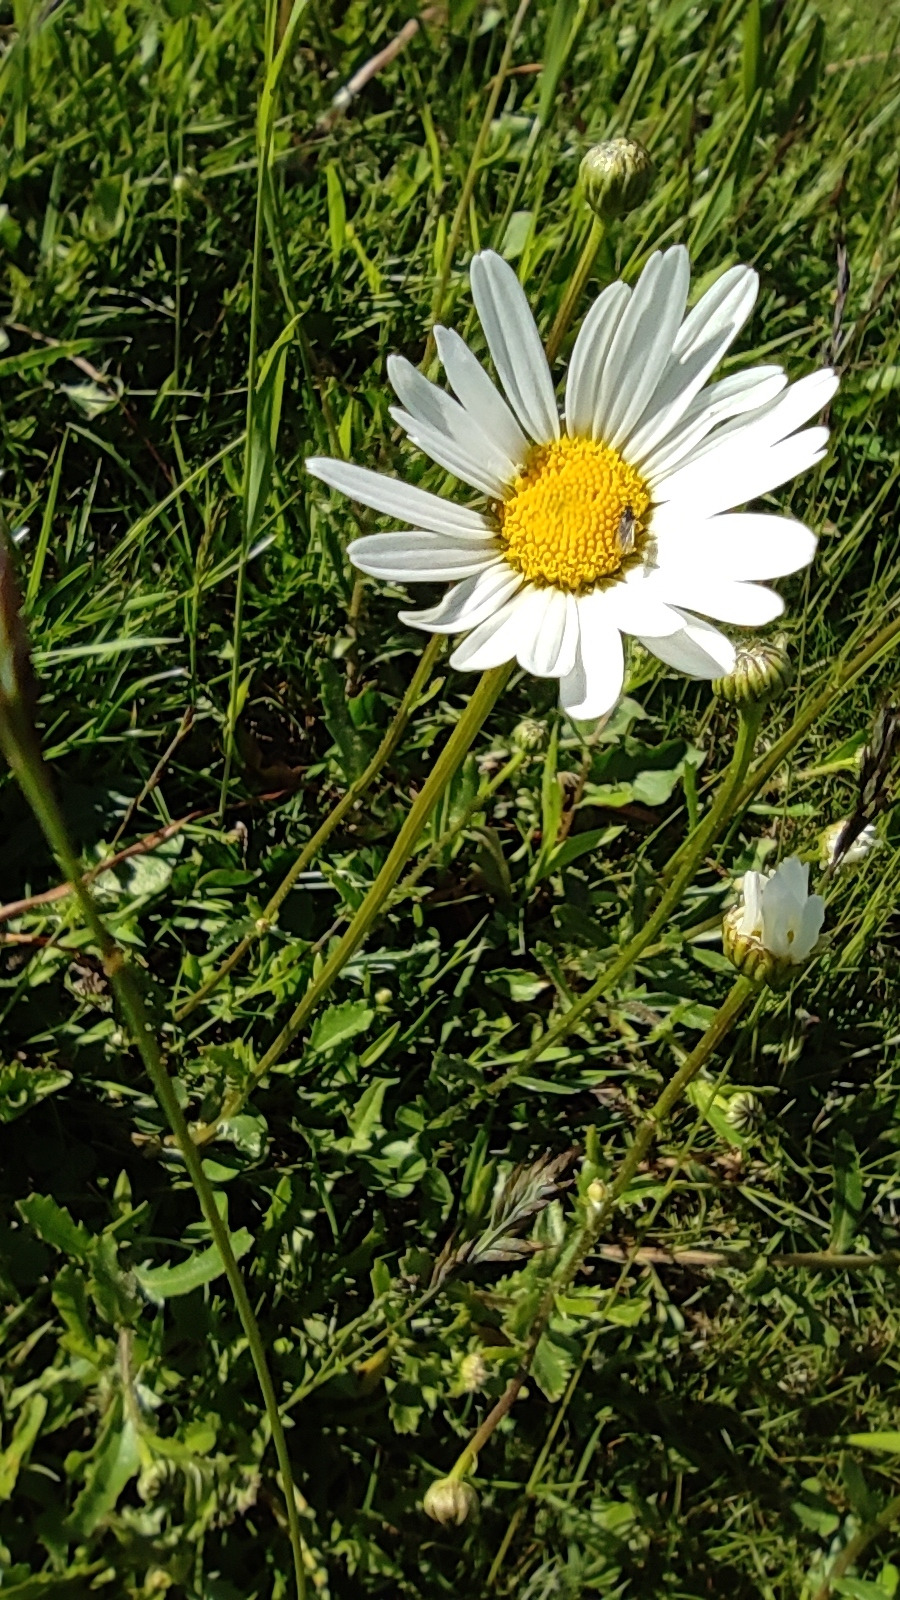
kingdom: Plantae
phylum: Tracheophyta
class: Magnoliopsida
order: Asterales
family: Asteraceae
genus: Leucanthemum
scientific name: Leucanthemum vulgare
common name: Oxeye daisy
